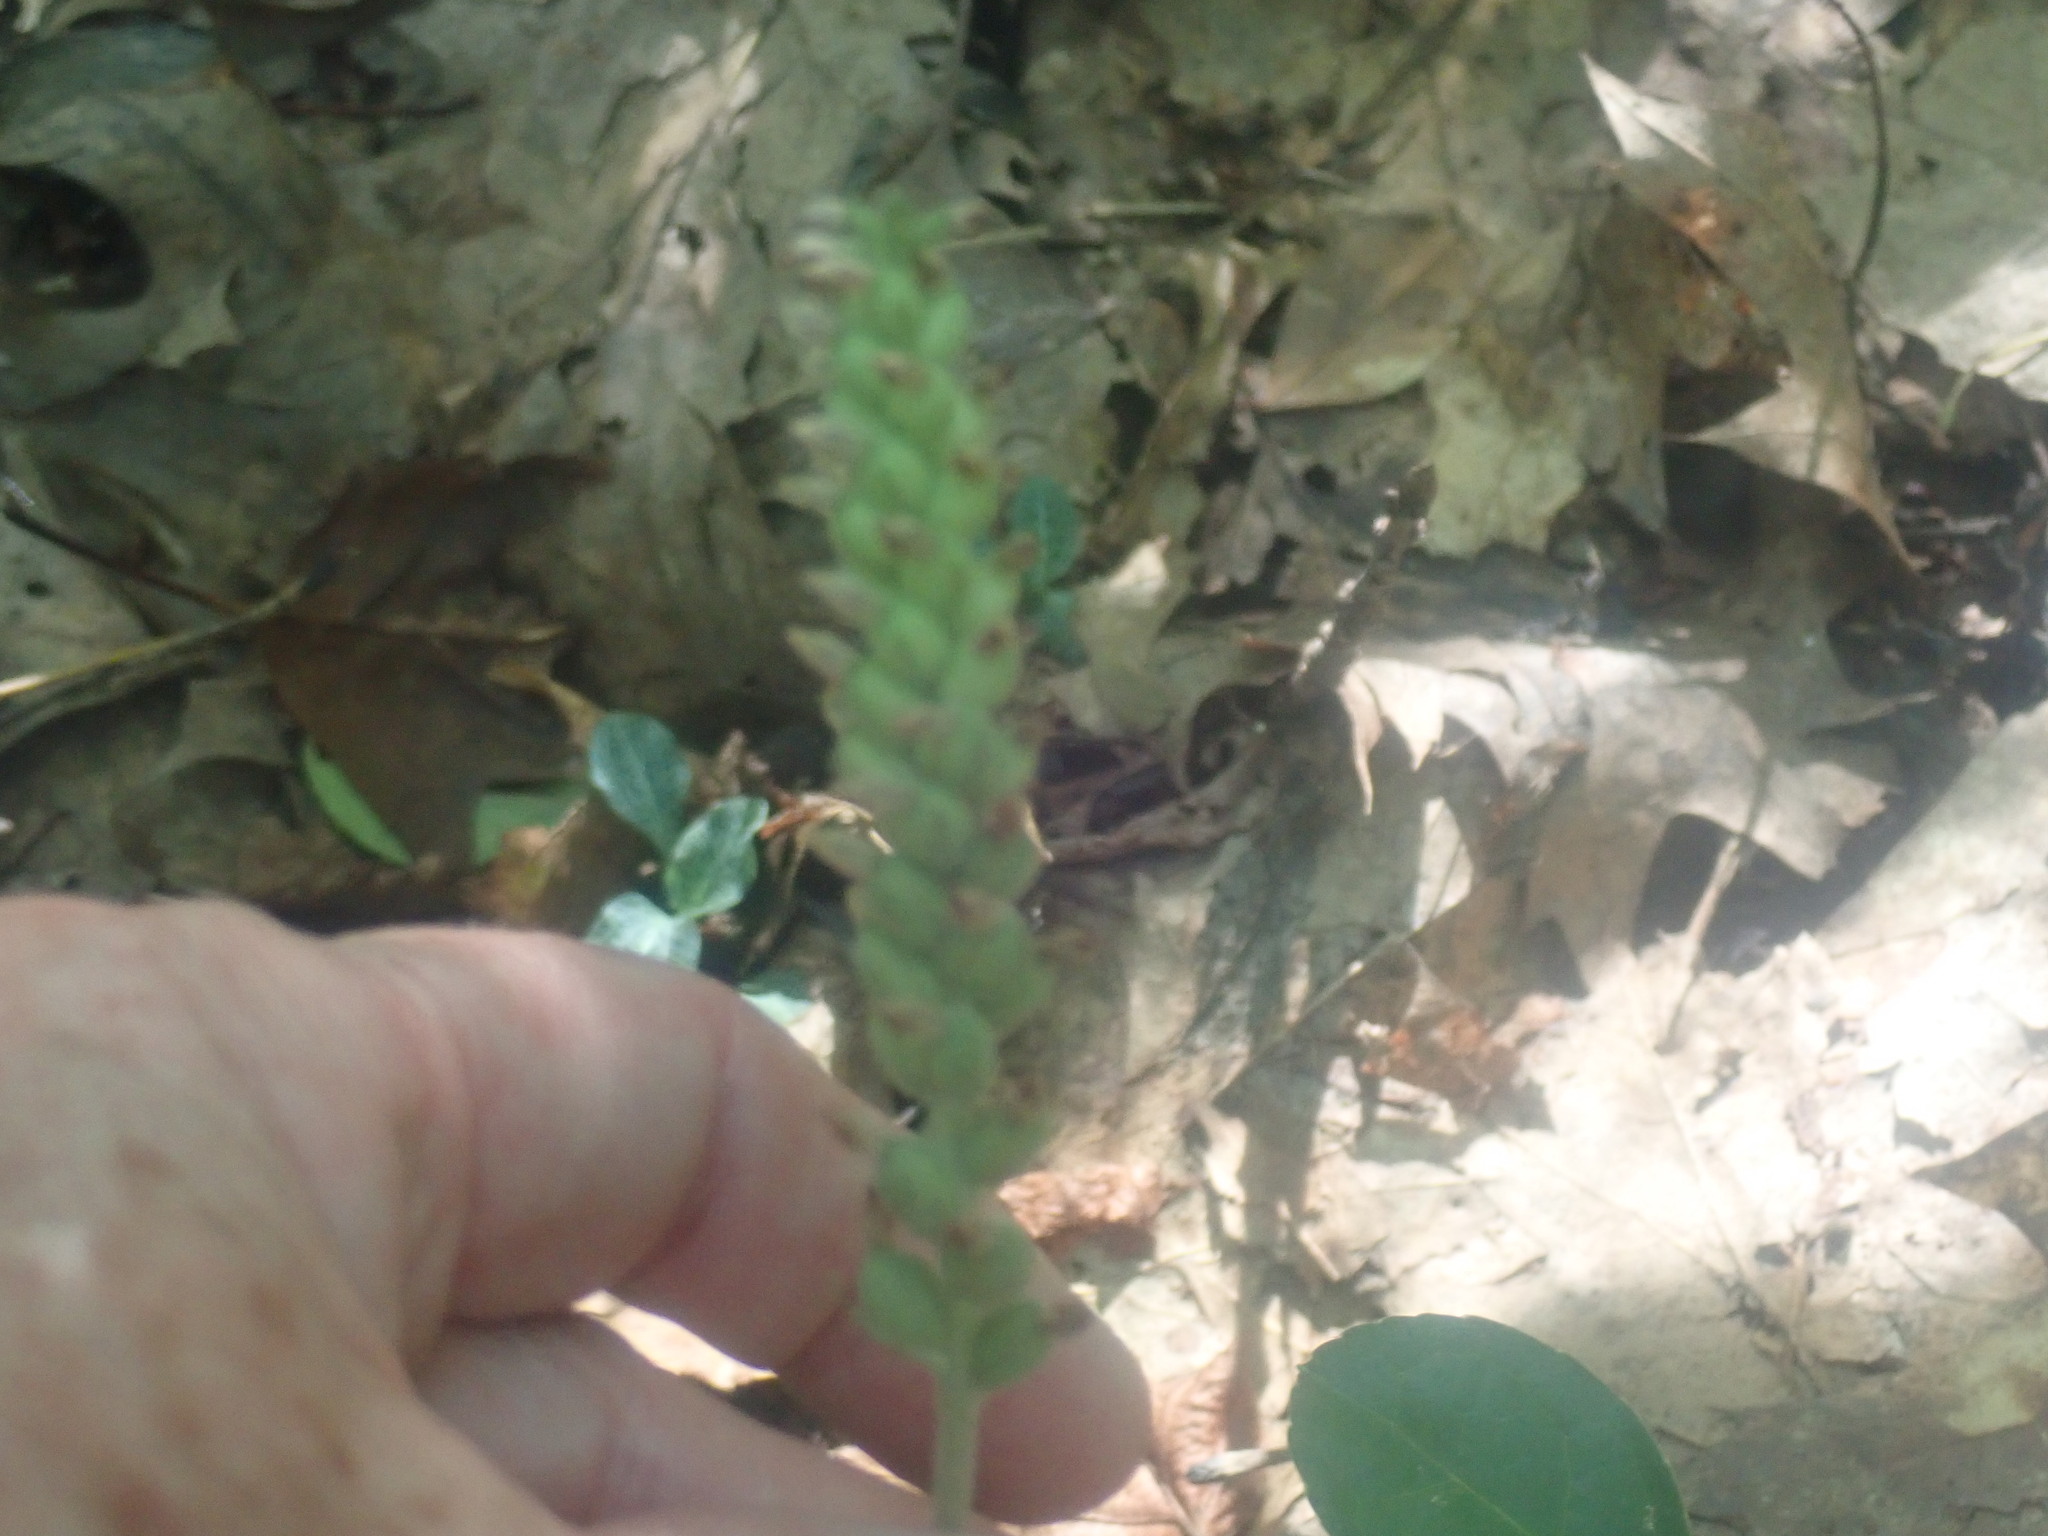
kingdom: Plantae
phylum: Tracheophyta
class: Liliopsida
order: Asparagales
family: Orchidaceae
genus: Goodyera
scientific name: Goodyera pubescens
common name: Downy rattlesnake-plantain
